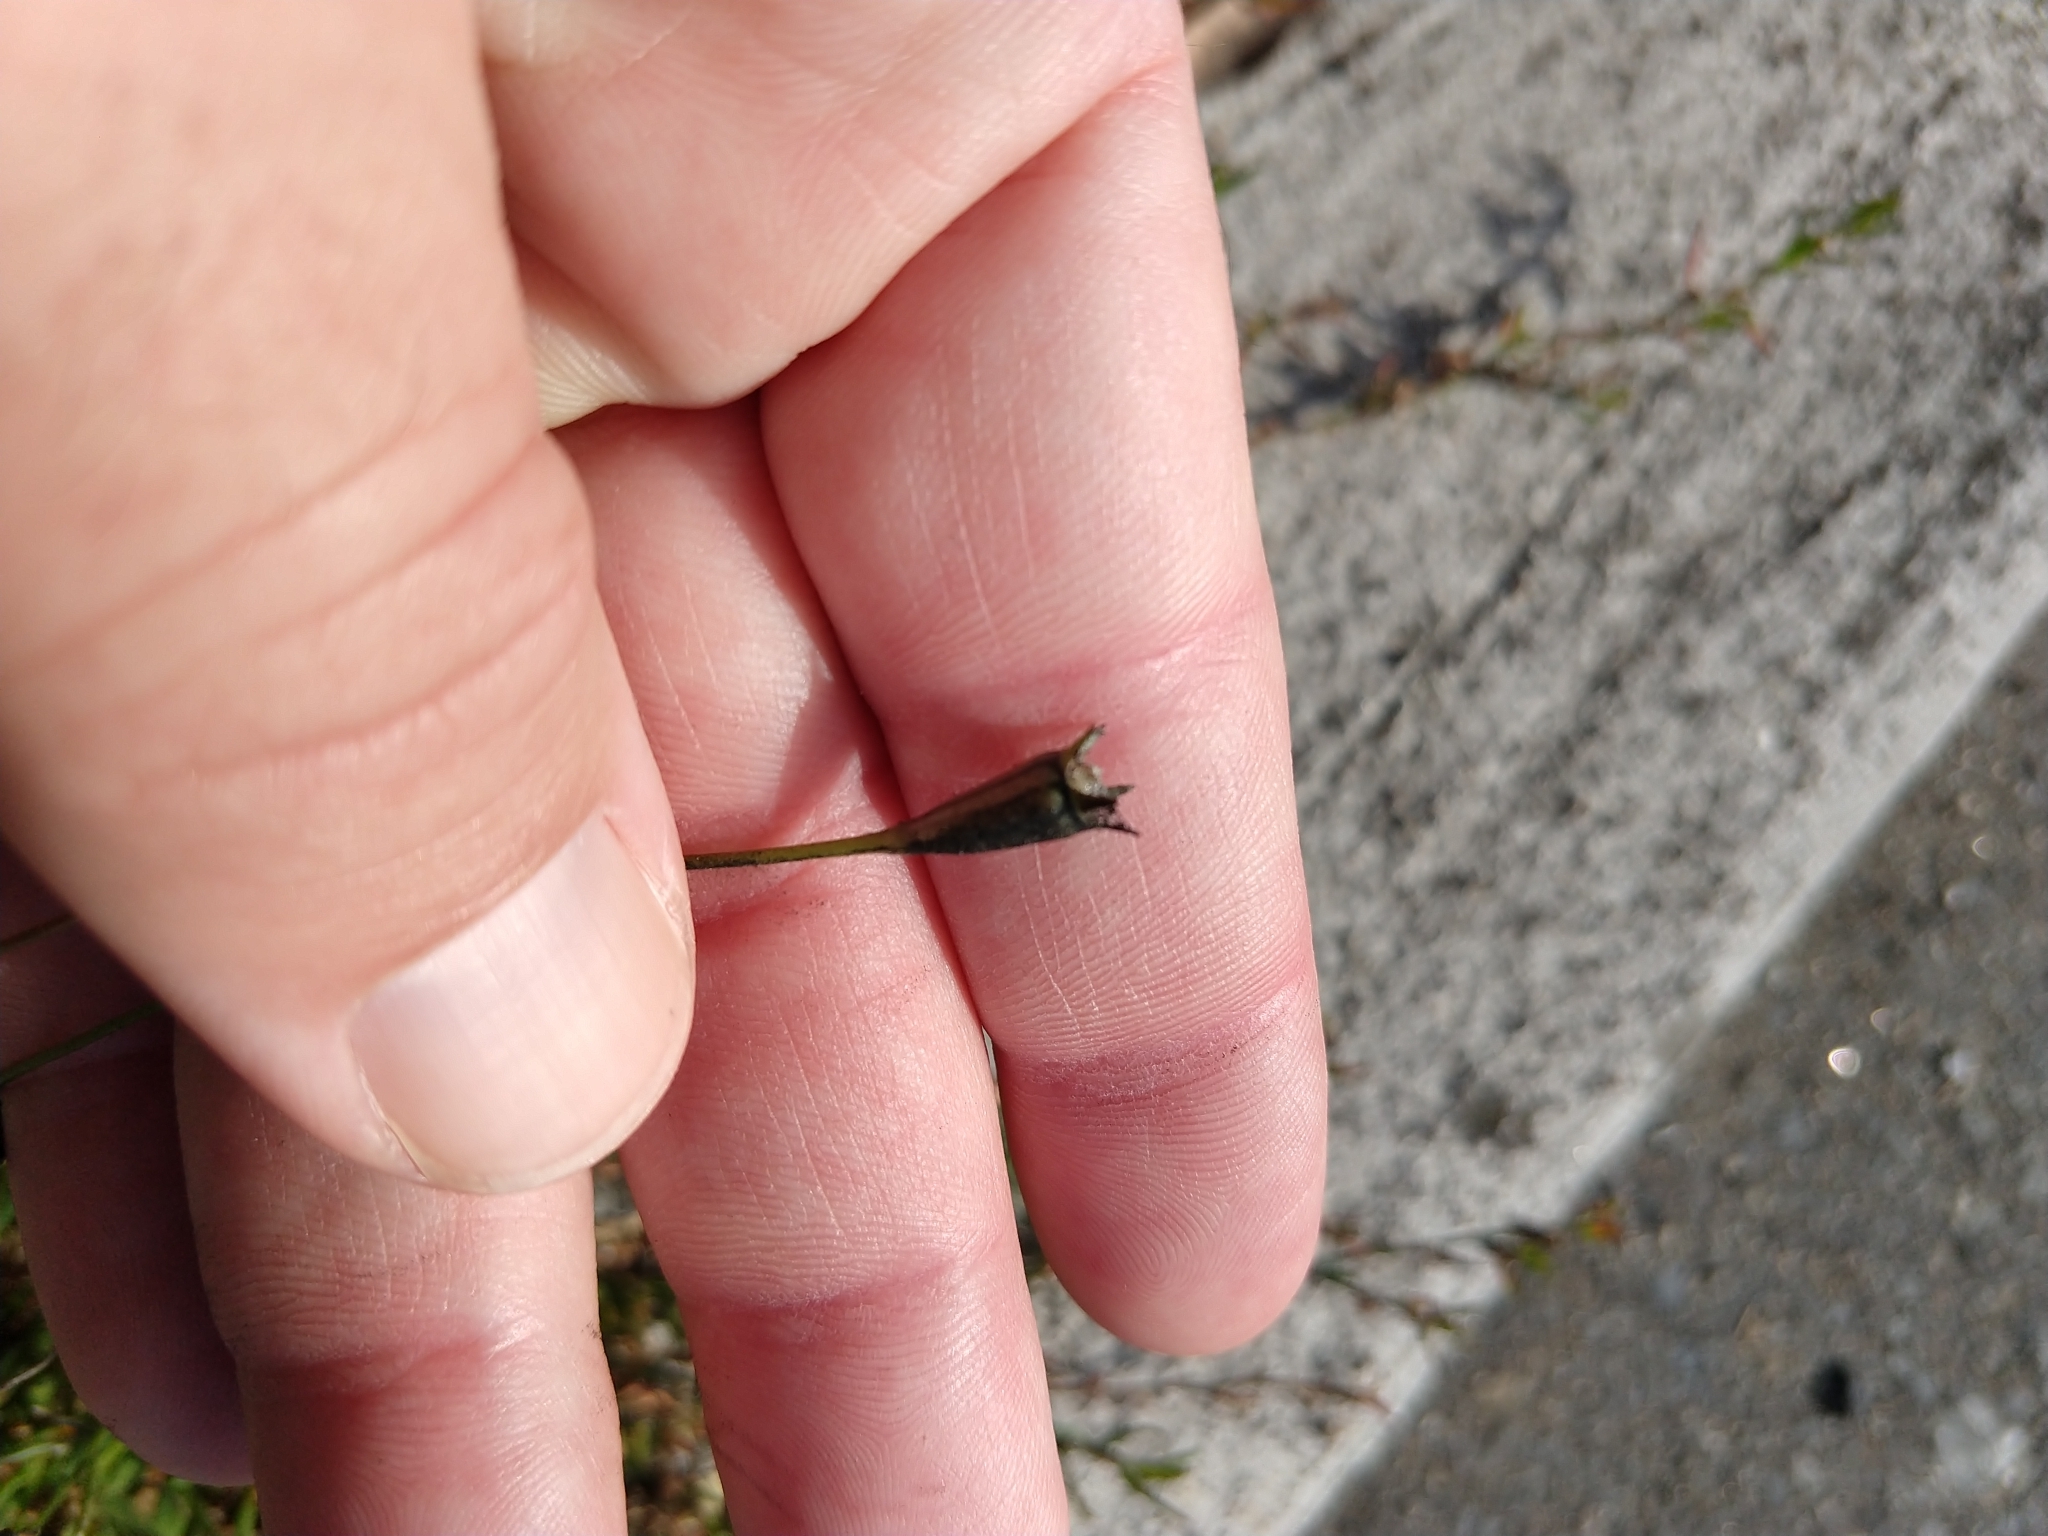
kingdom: Plantae
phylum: Tracheophyta
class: Magnoliopsida
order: Asterales
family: Campanulaceae
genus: Wahlenbergia
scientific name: Wahlenbergia marginata
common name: Southern rockbell
